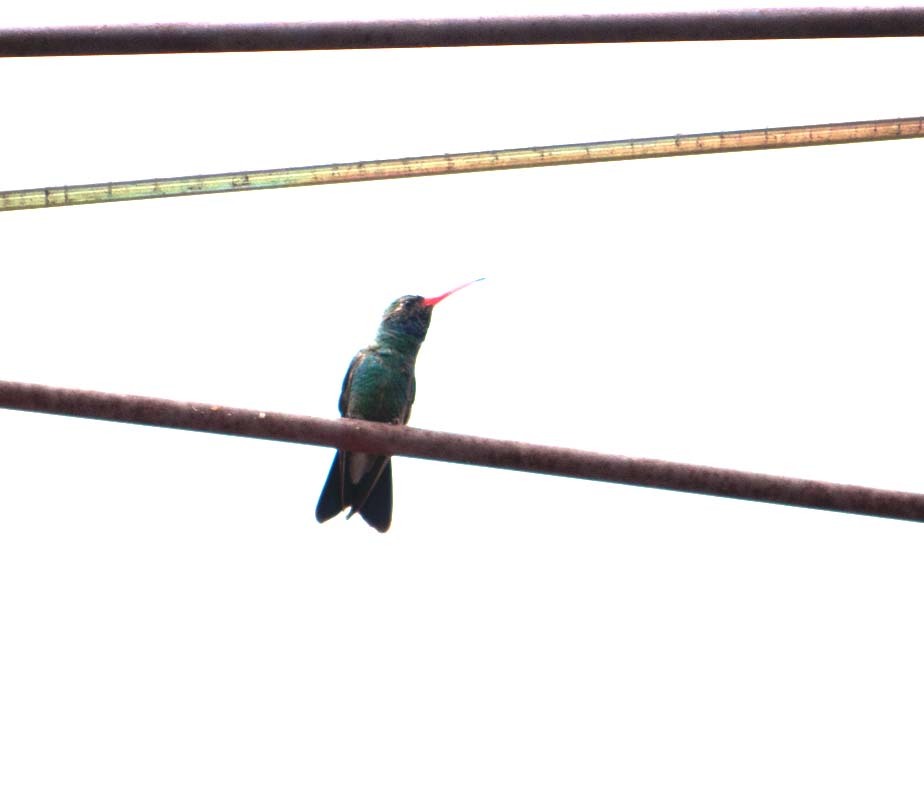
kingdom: Animalia
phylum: Chordata
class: Aves
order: Apodiformes
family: Trochilidae
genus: Cynanthus
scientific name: Cynanthus latirostris
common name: Broad-billed hummingbird
